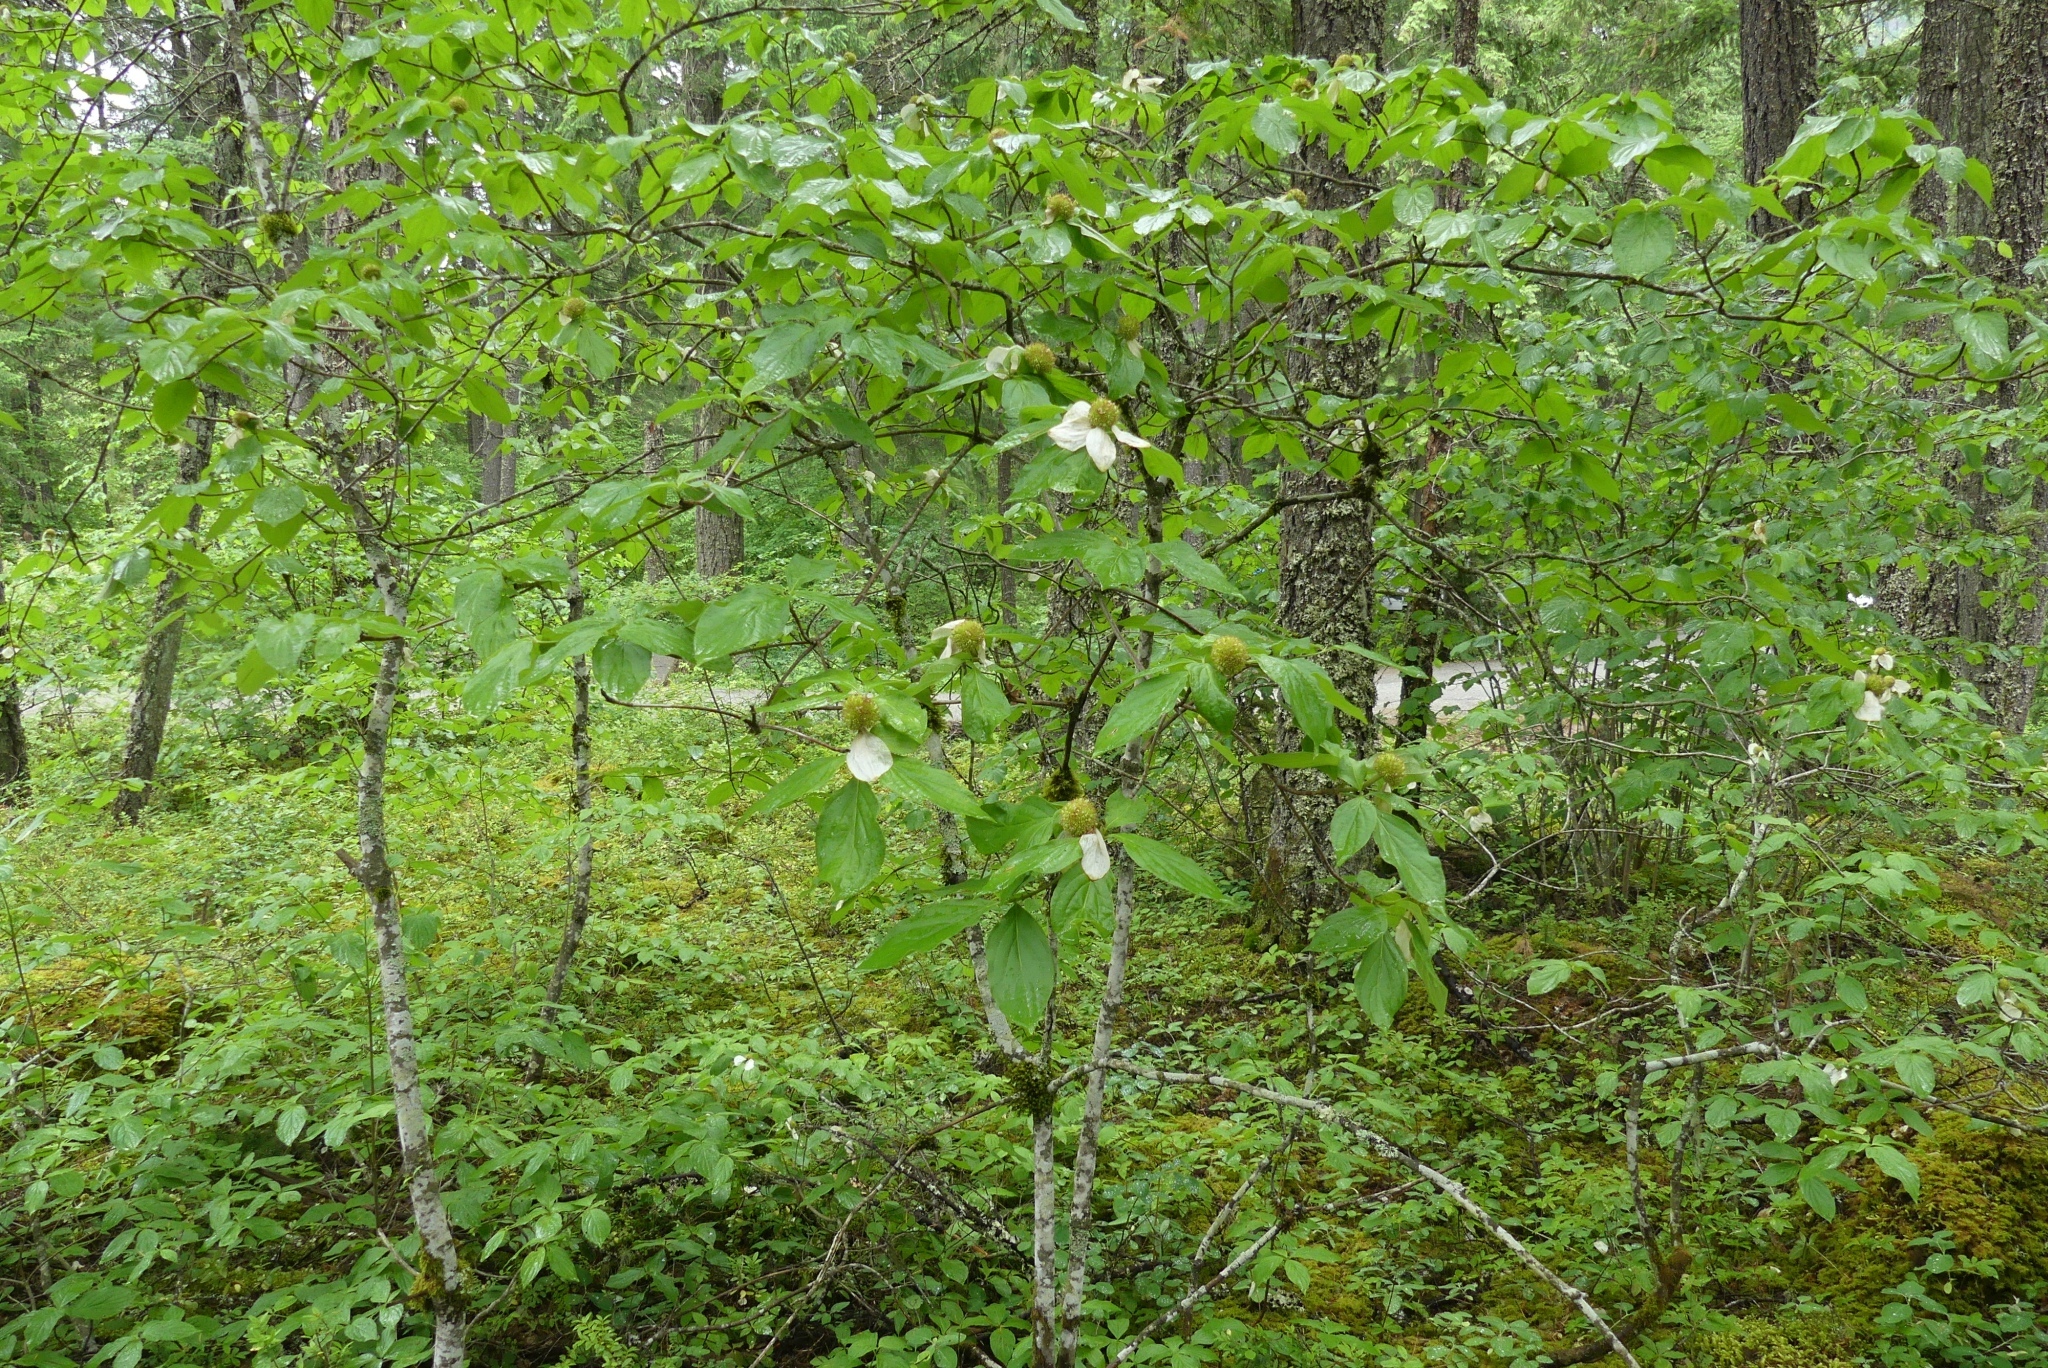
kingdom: Plantae
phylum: Tracheophyta
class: Magnoliopsida
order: Cornales
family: Cornaceae
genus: Cornus
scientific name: Cornus nuttallii
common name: Pacific dogwood
